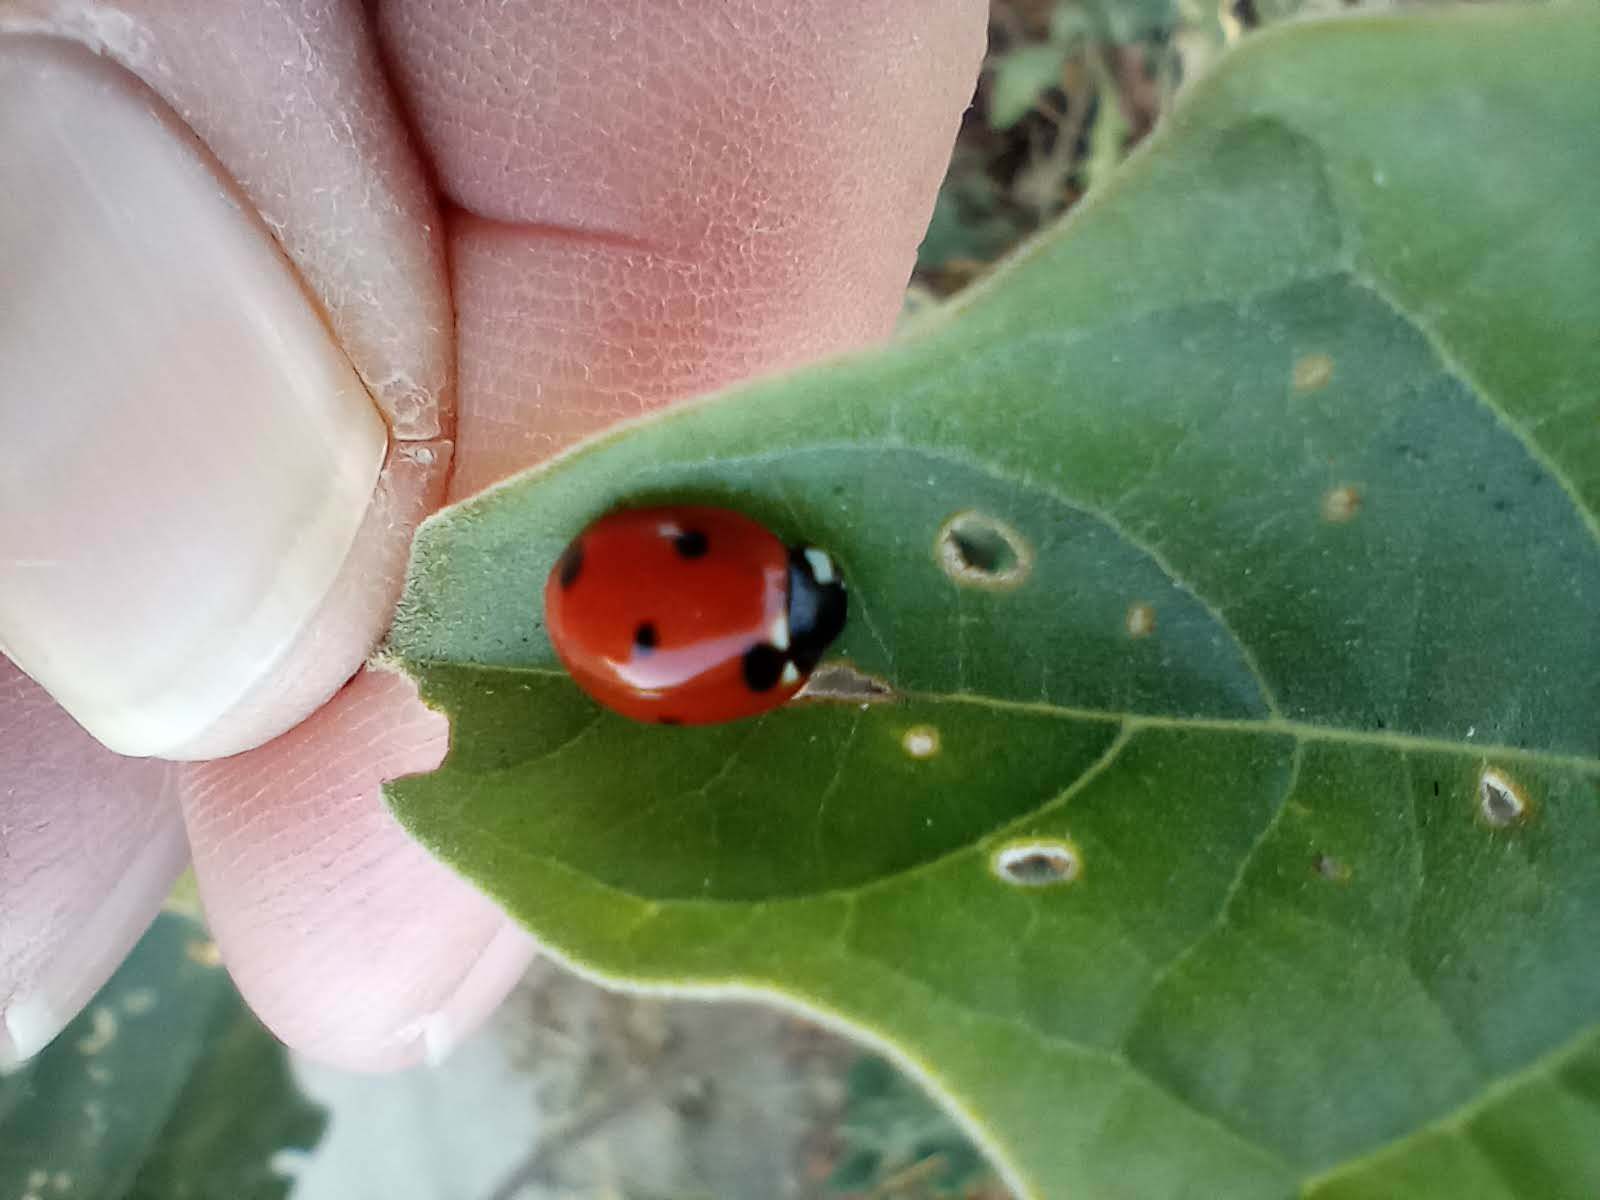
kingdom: Animalia
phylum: Arthropoda
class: Insecta
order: Coleoptera
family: Coccinellidae
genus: Coccinella
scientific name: Coccinella septempunctata
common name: Sevenspotted lady beetle
